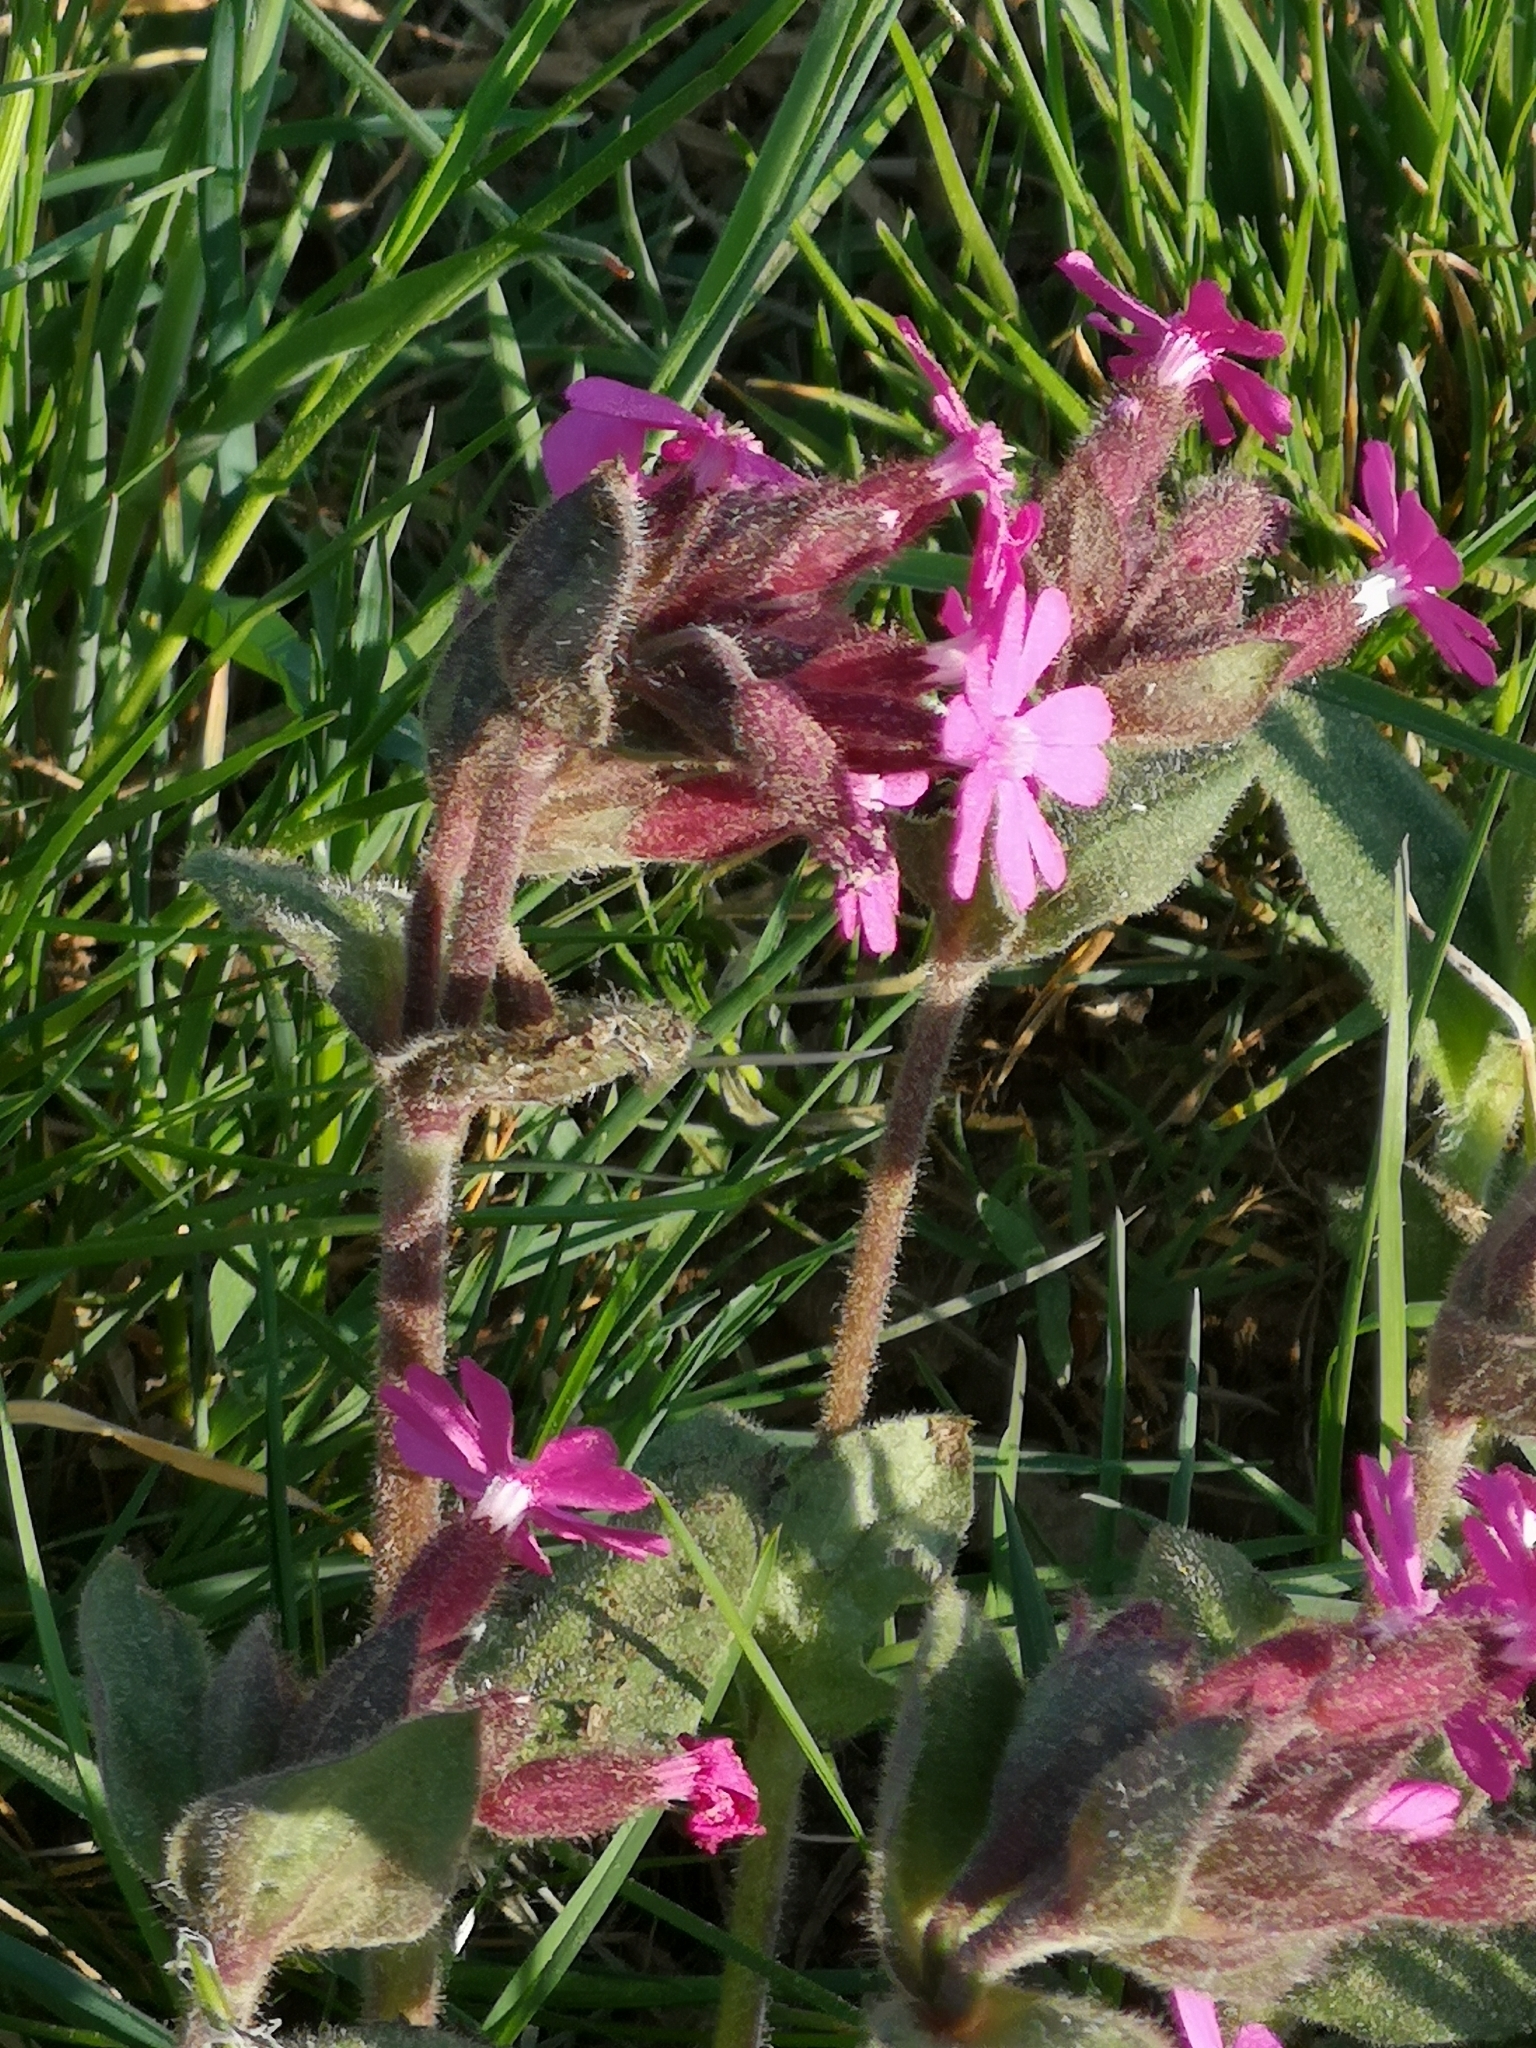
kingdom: Plantae
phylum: Tracheophyta
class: Magnoliopsida
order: Caryophyllales
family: Caryophyllaceae
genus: Silene
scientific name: Silene dioica
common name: Red campion
